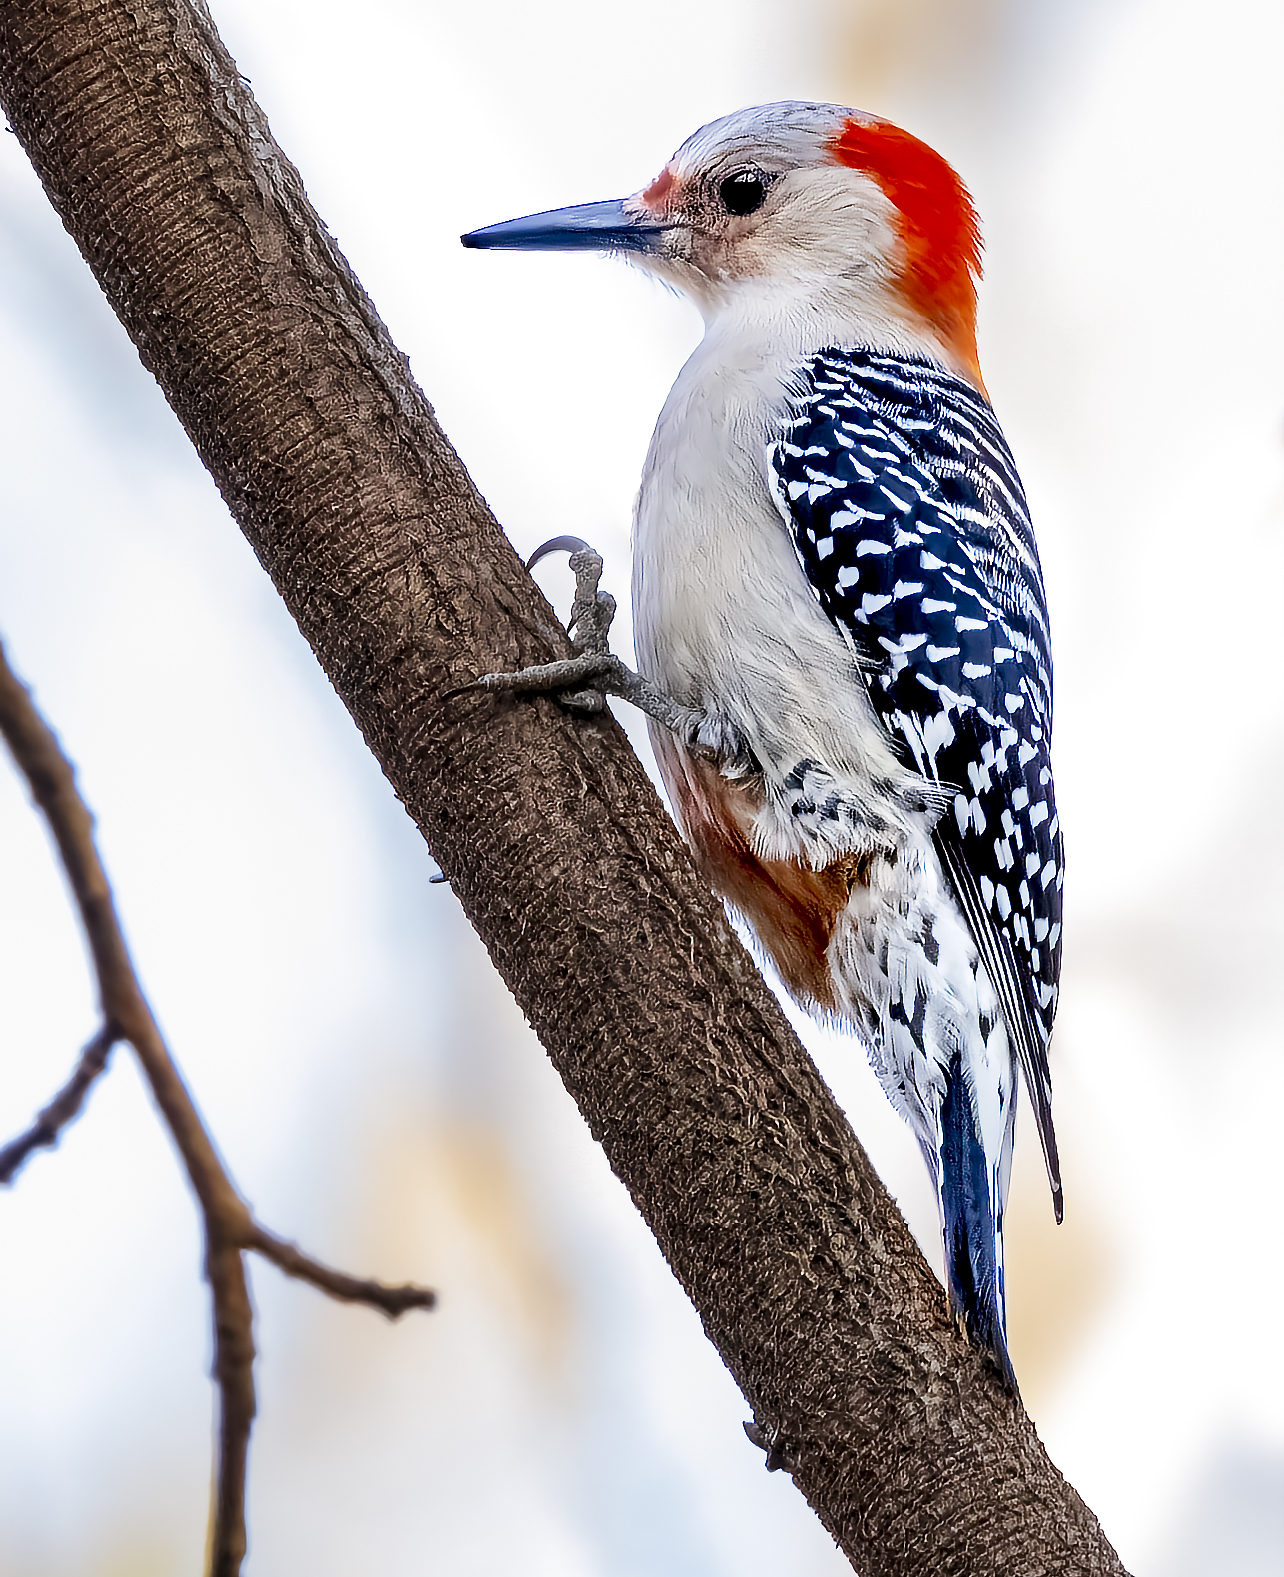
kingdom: Animalia
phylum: Chordata
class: Aves
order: Piciformes
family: Picidae
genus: Melanerpes
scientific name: Melanerpes carolinus
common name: Red-bellied woodpecker
